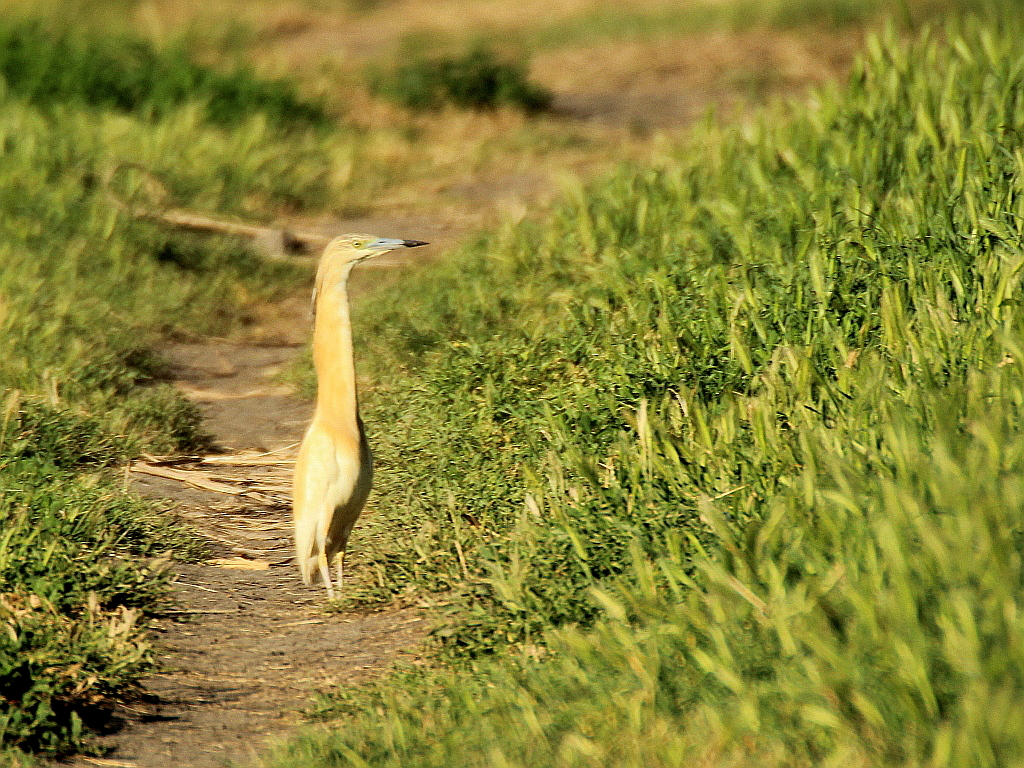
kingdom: Animalia
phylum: Chordata
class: Aves
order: Pelecaniformes
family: Ardeidae
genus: Ardeola
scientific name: Ardeola ralloides
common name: Squacco heron
